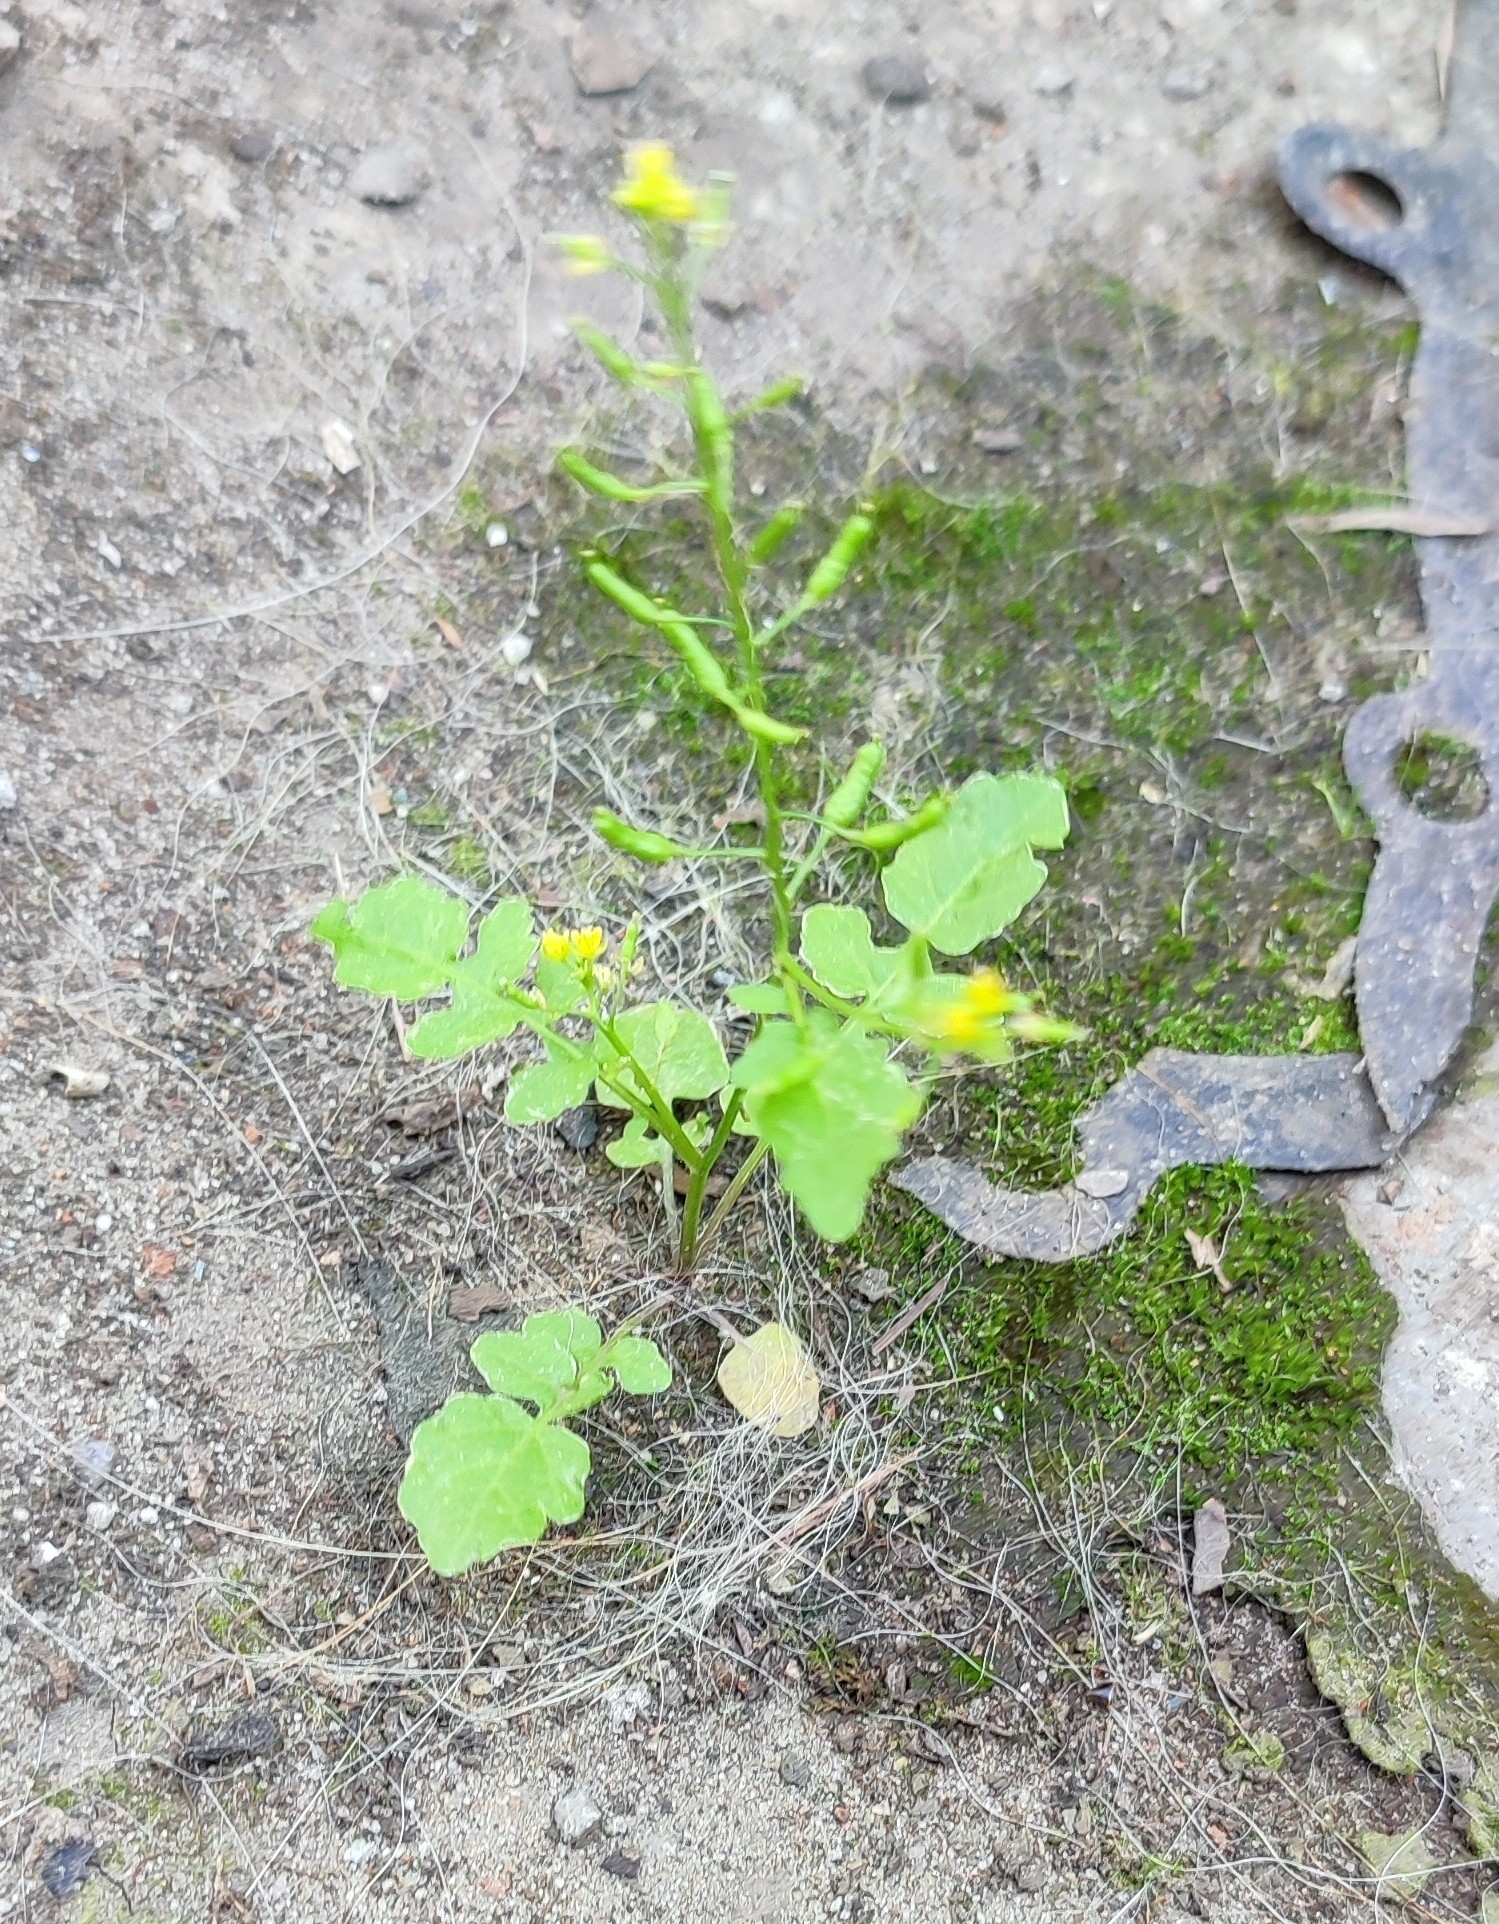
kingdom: Plantae
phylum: Tracheophyta
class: Magnoliopsida
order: Brassicales
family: Brassicaceae
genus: Rorippa
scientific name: Rorippa palustris
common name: Marsh yellow-cress
